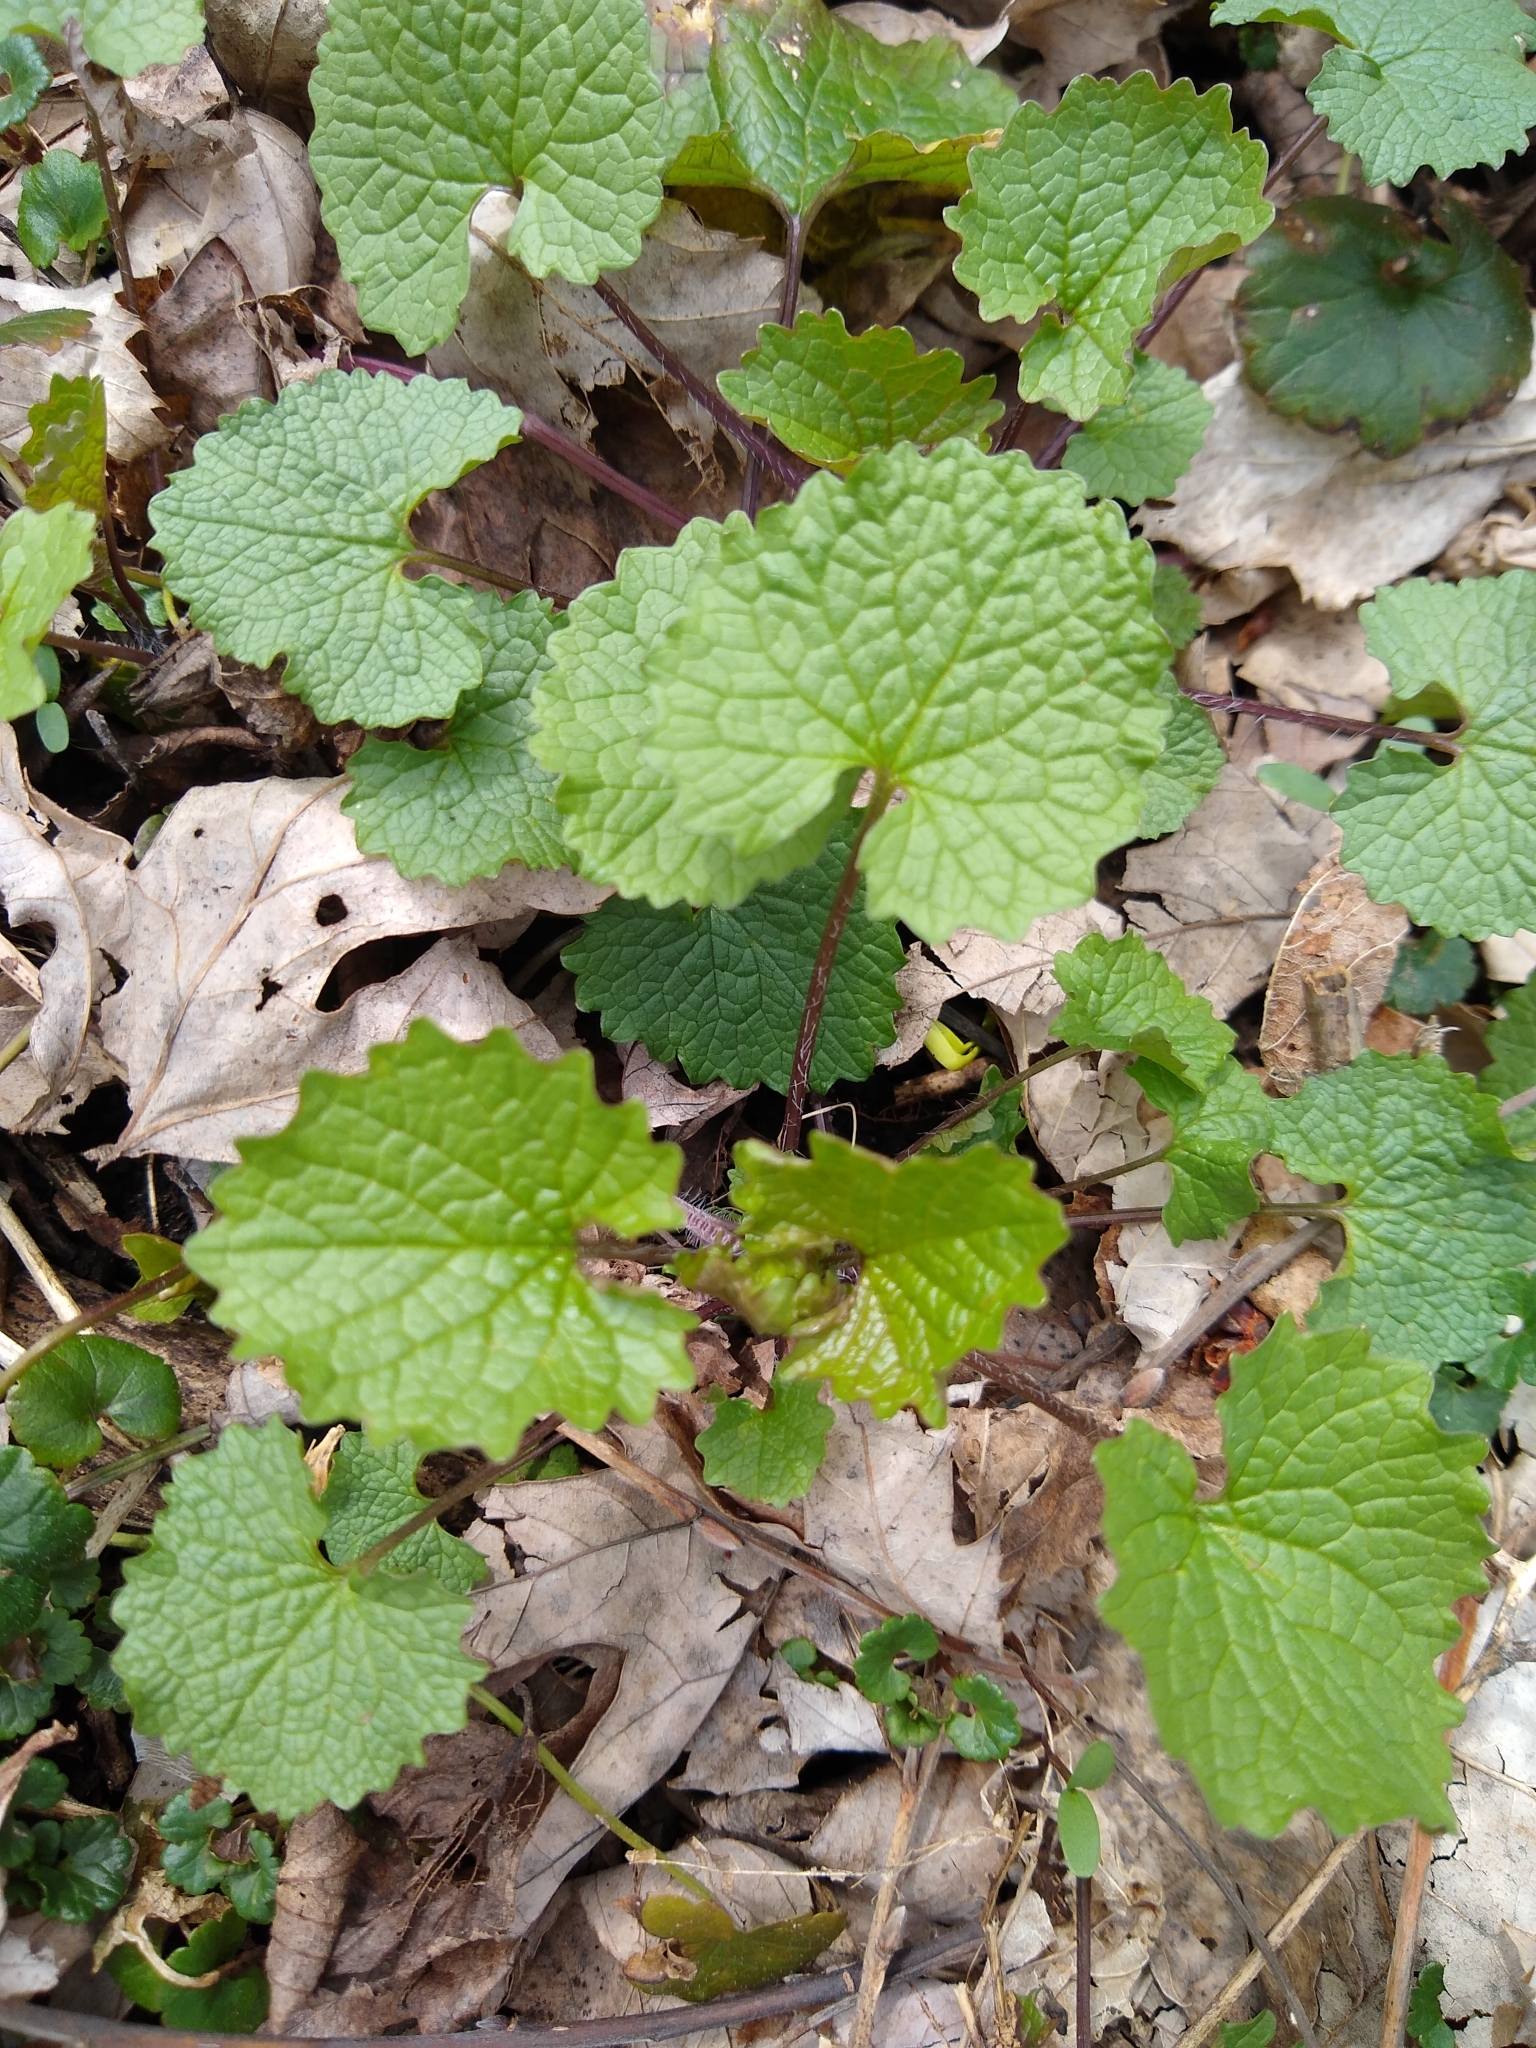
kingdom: Plantae
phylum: Tracheophyta
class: Magnoliopsida
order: Brassicales
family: Brassicaceae
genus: Alliaria
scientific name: Alliaria petiolata
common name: Garlic mustard
